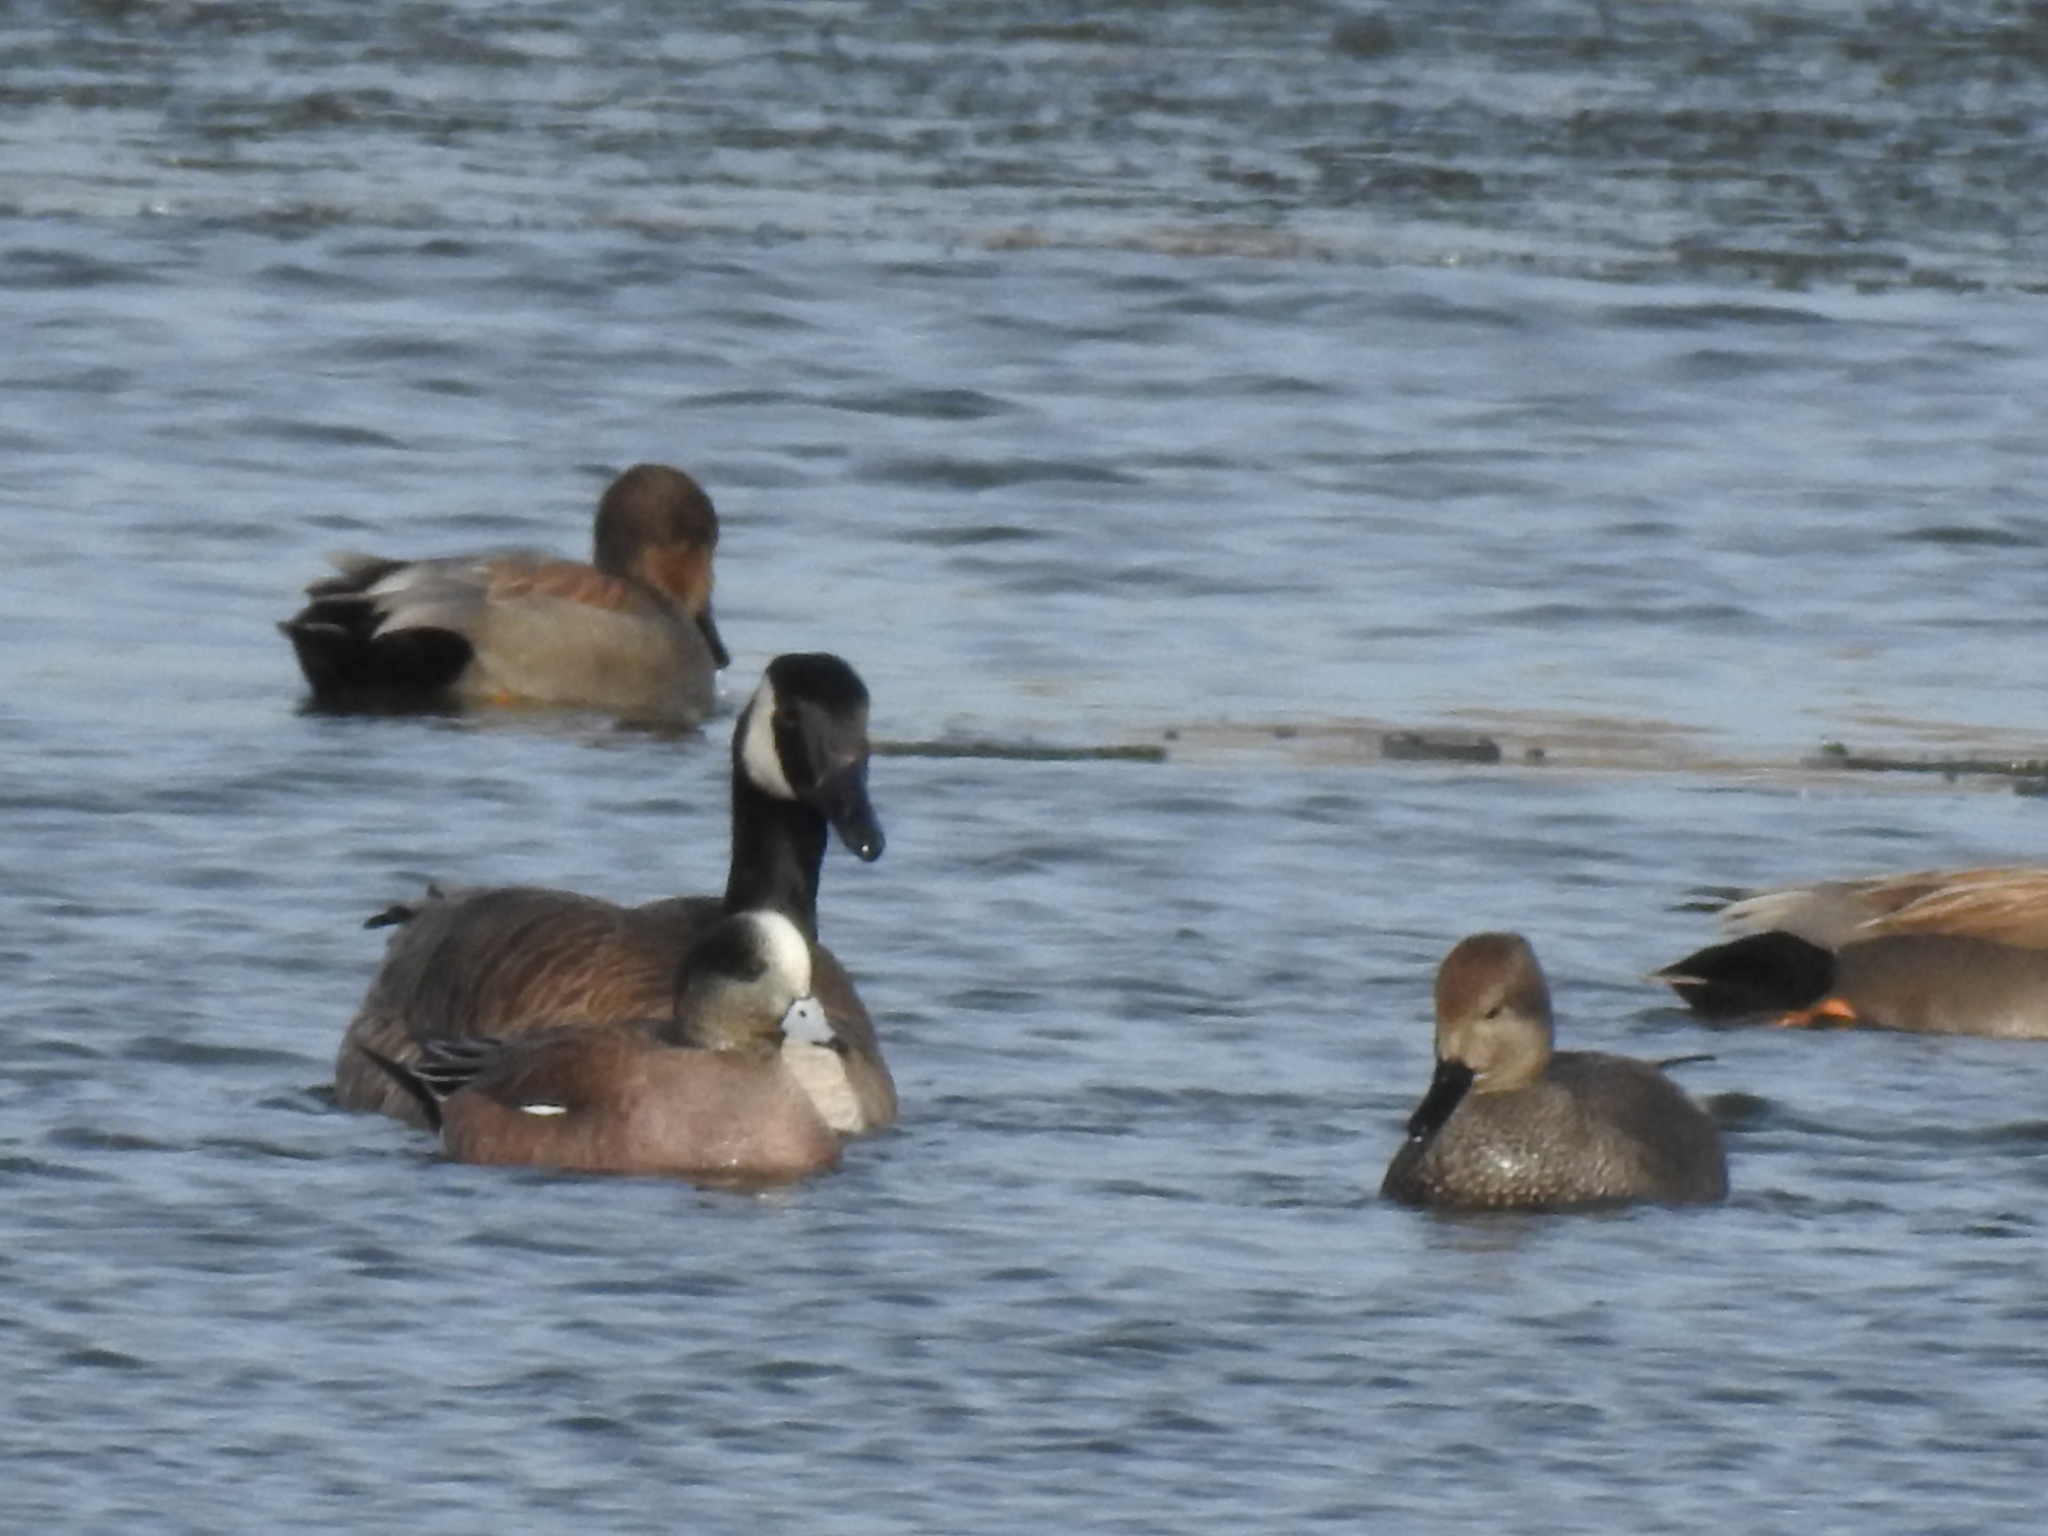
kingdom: Animalia
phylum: Chordata
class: Aves
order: Anseriformes
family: Anatidae
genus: Mareca
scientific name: Mareca strepera
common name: Gadwall
